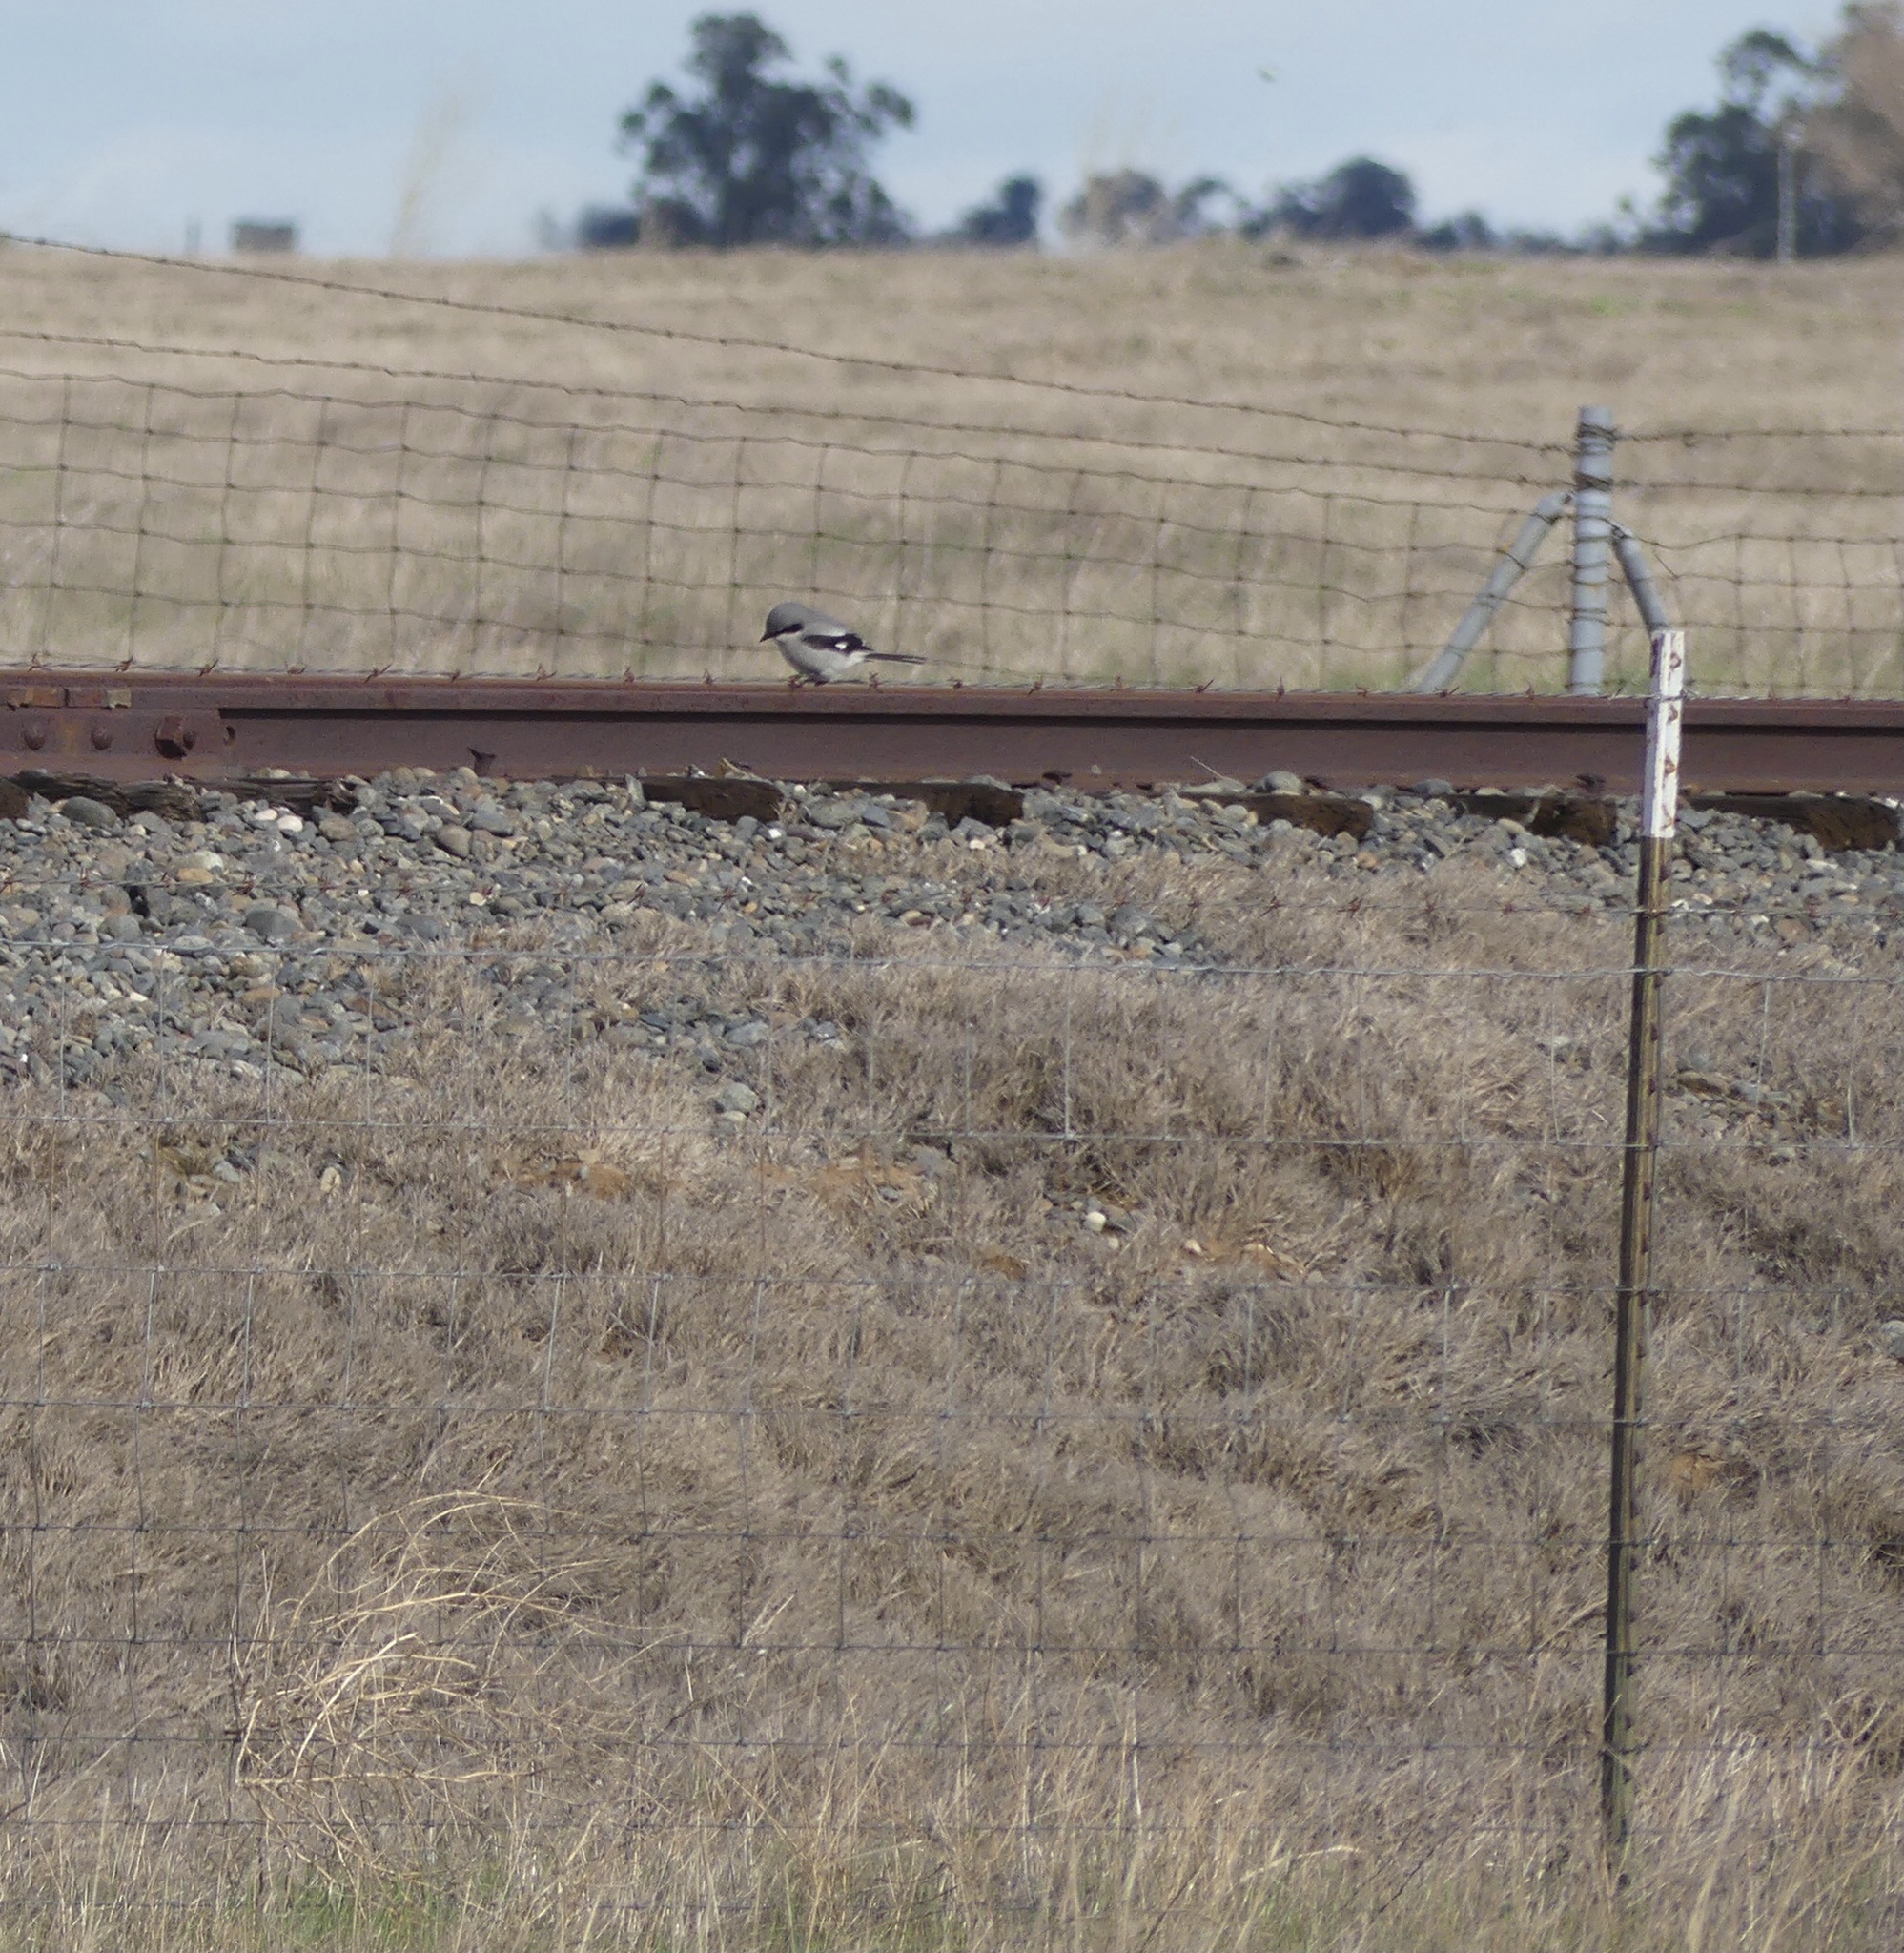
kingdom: Animalia
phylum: Chordata
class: Aves
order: Passeriformes
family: Laniidae
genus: Lanius
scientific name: Lanius ludovicianus
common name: Loggerhead shrike
